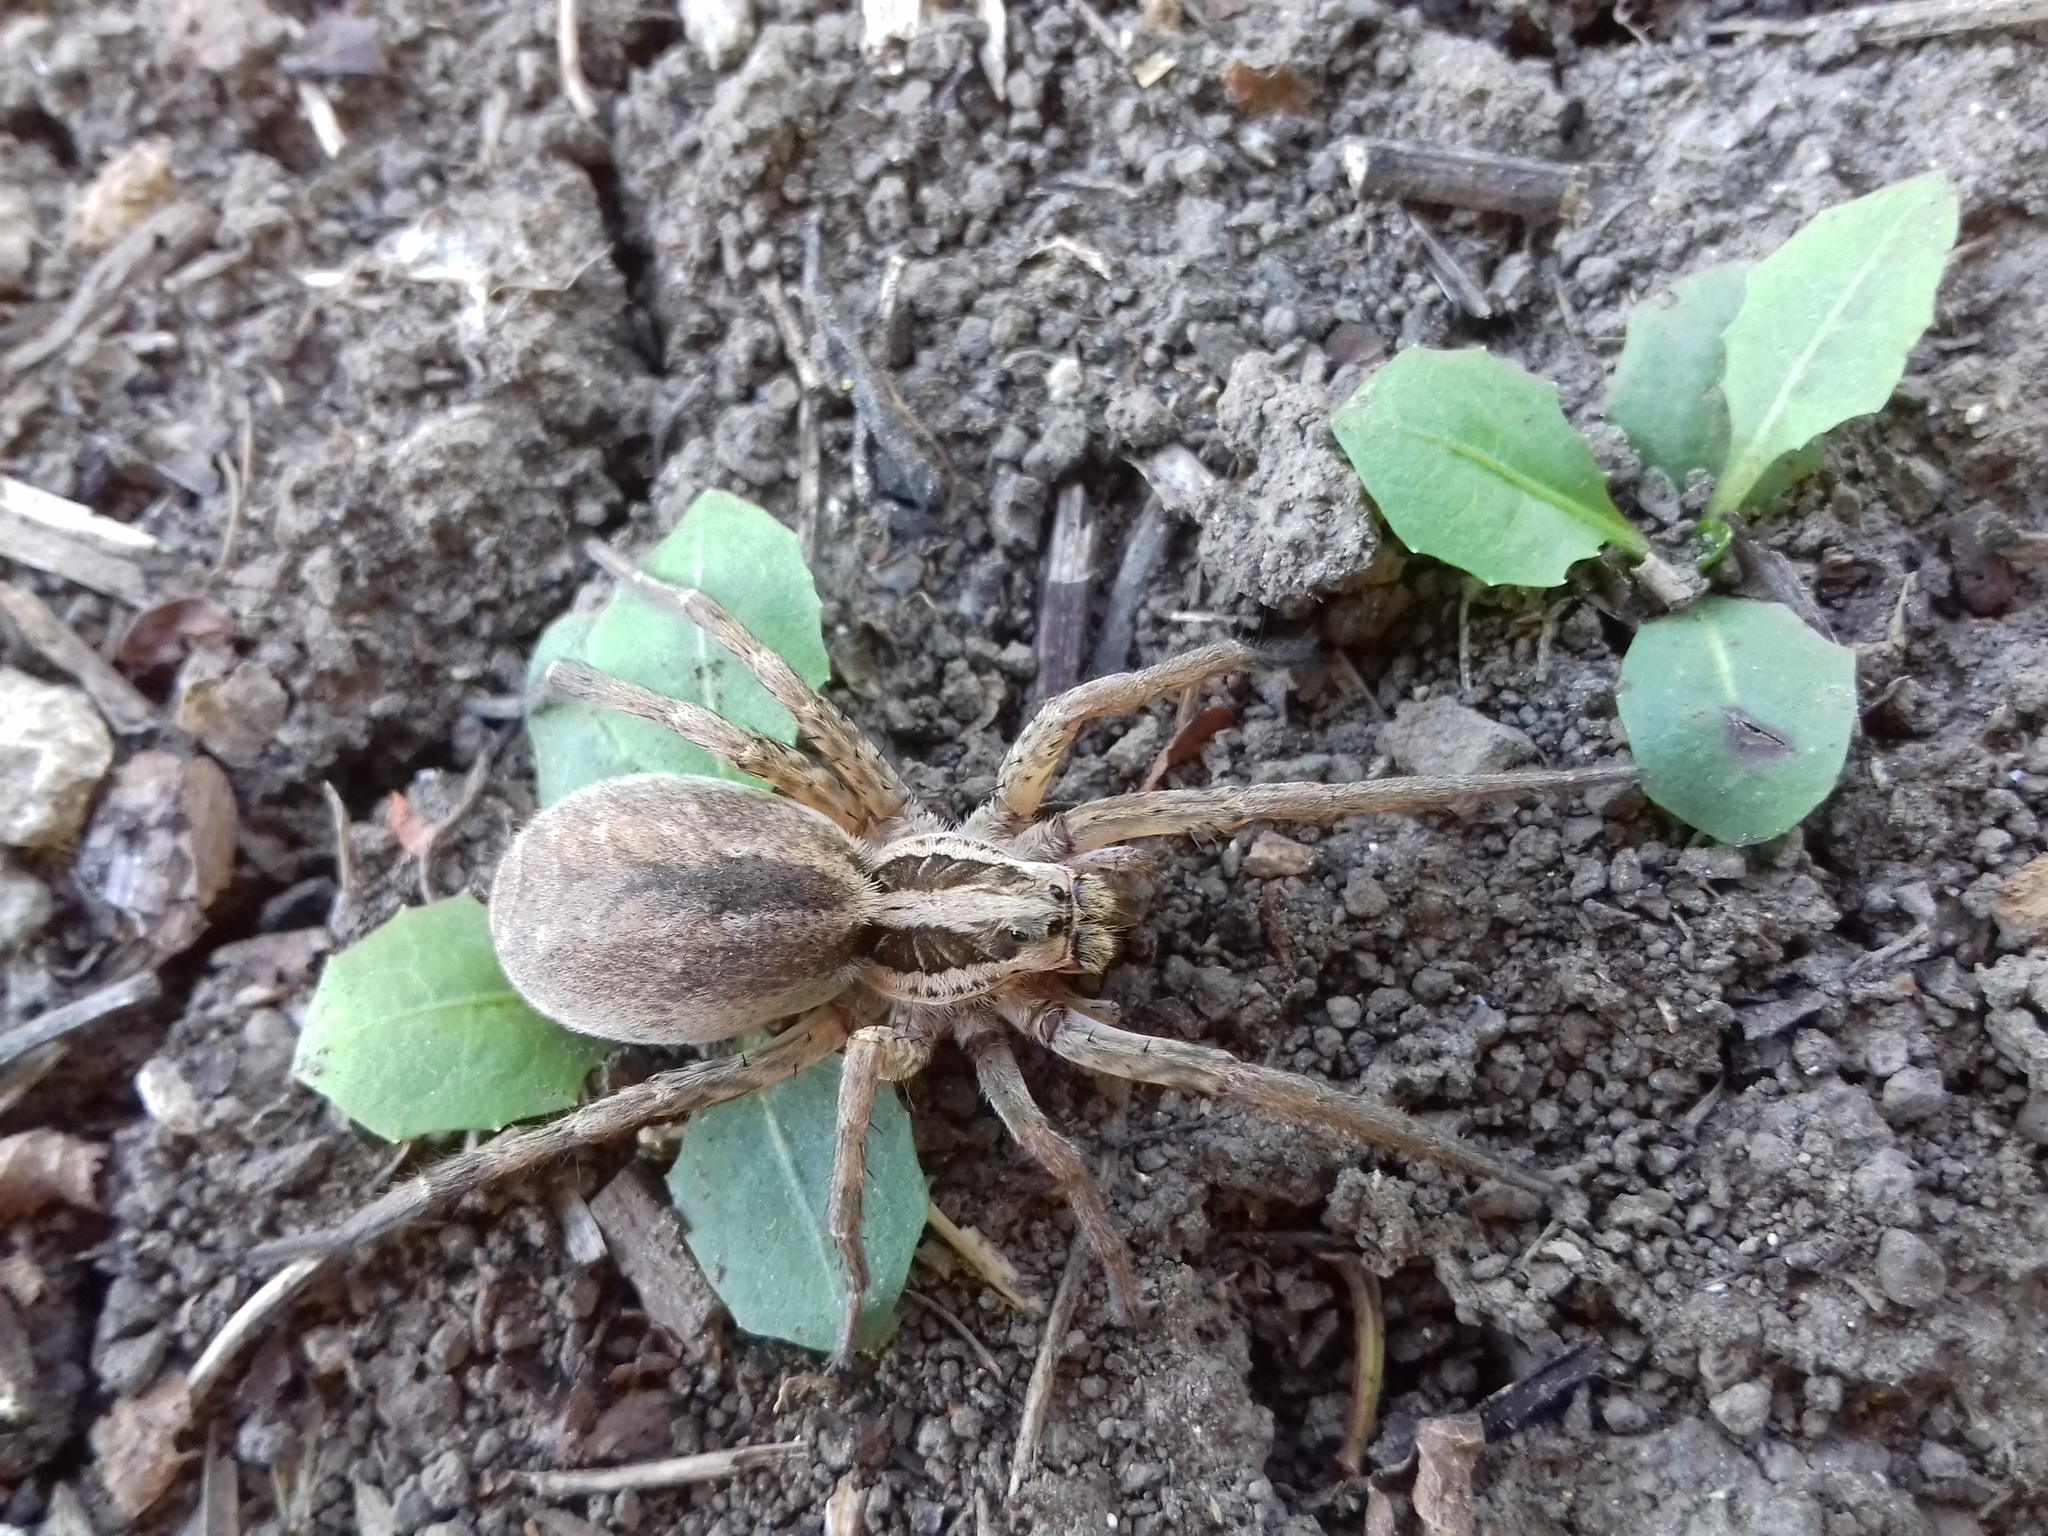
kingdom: Animalia
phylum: Arthropoda
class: Arachnida
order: Araneae
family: Lycosidae
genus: Hogna
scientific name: Hogna radiata
